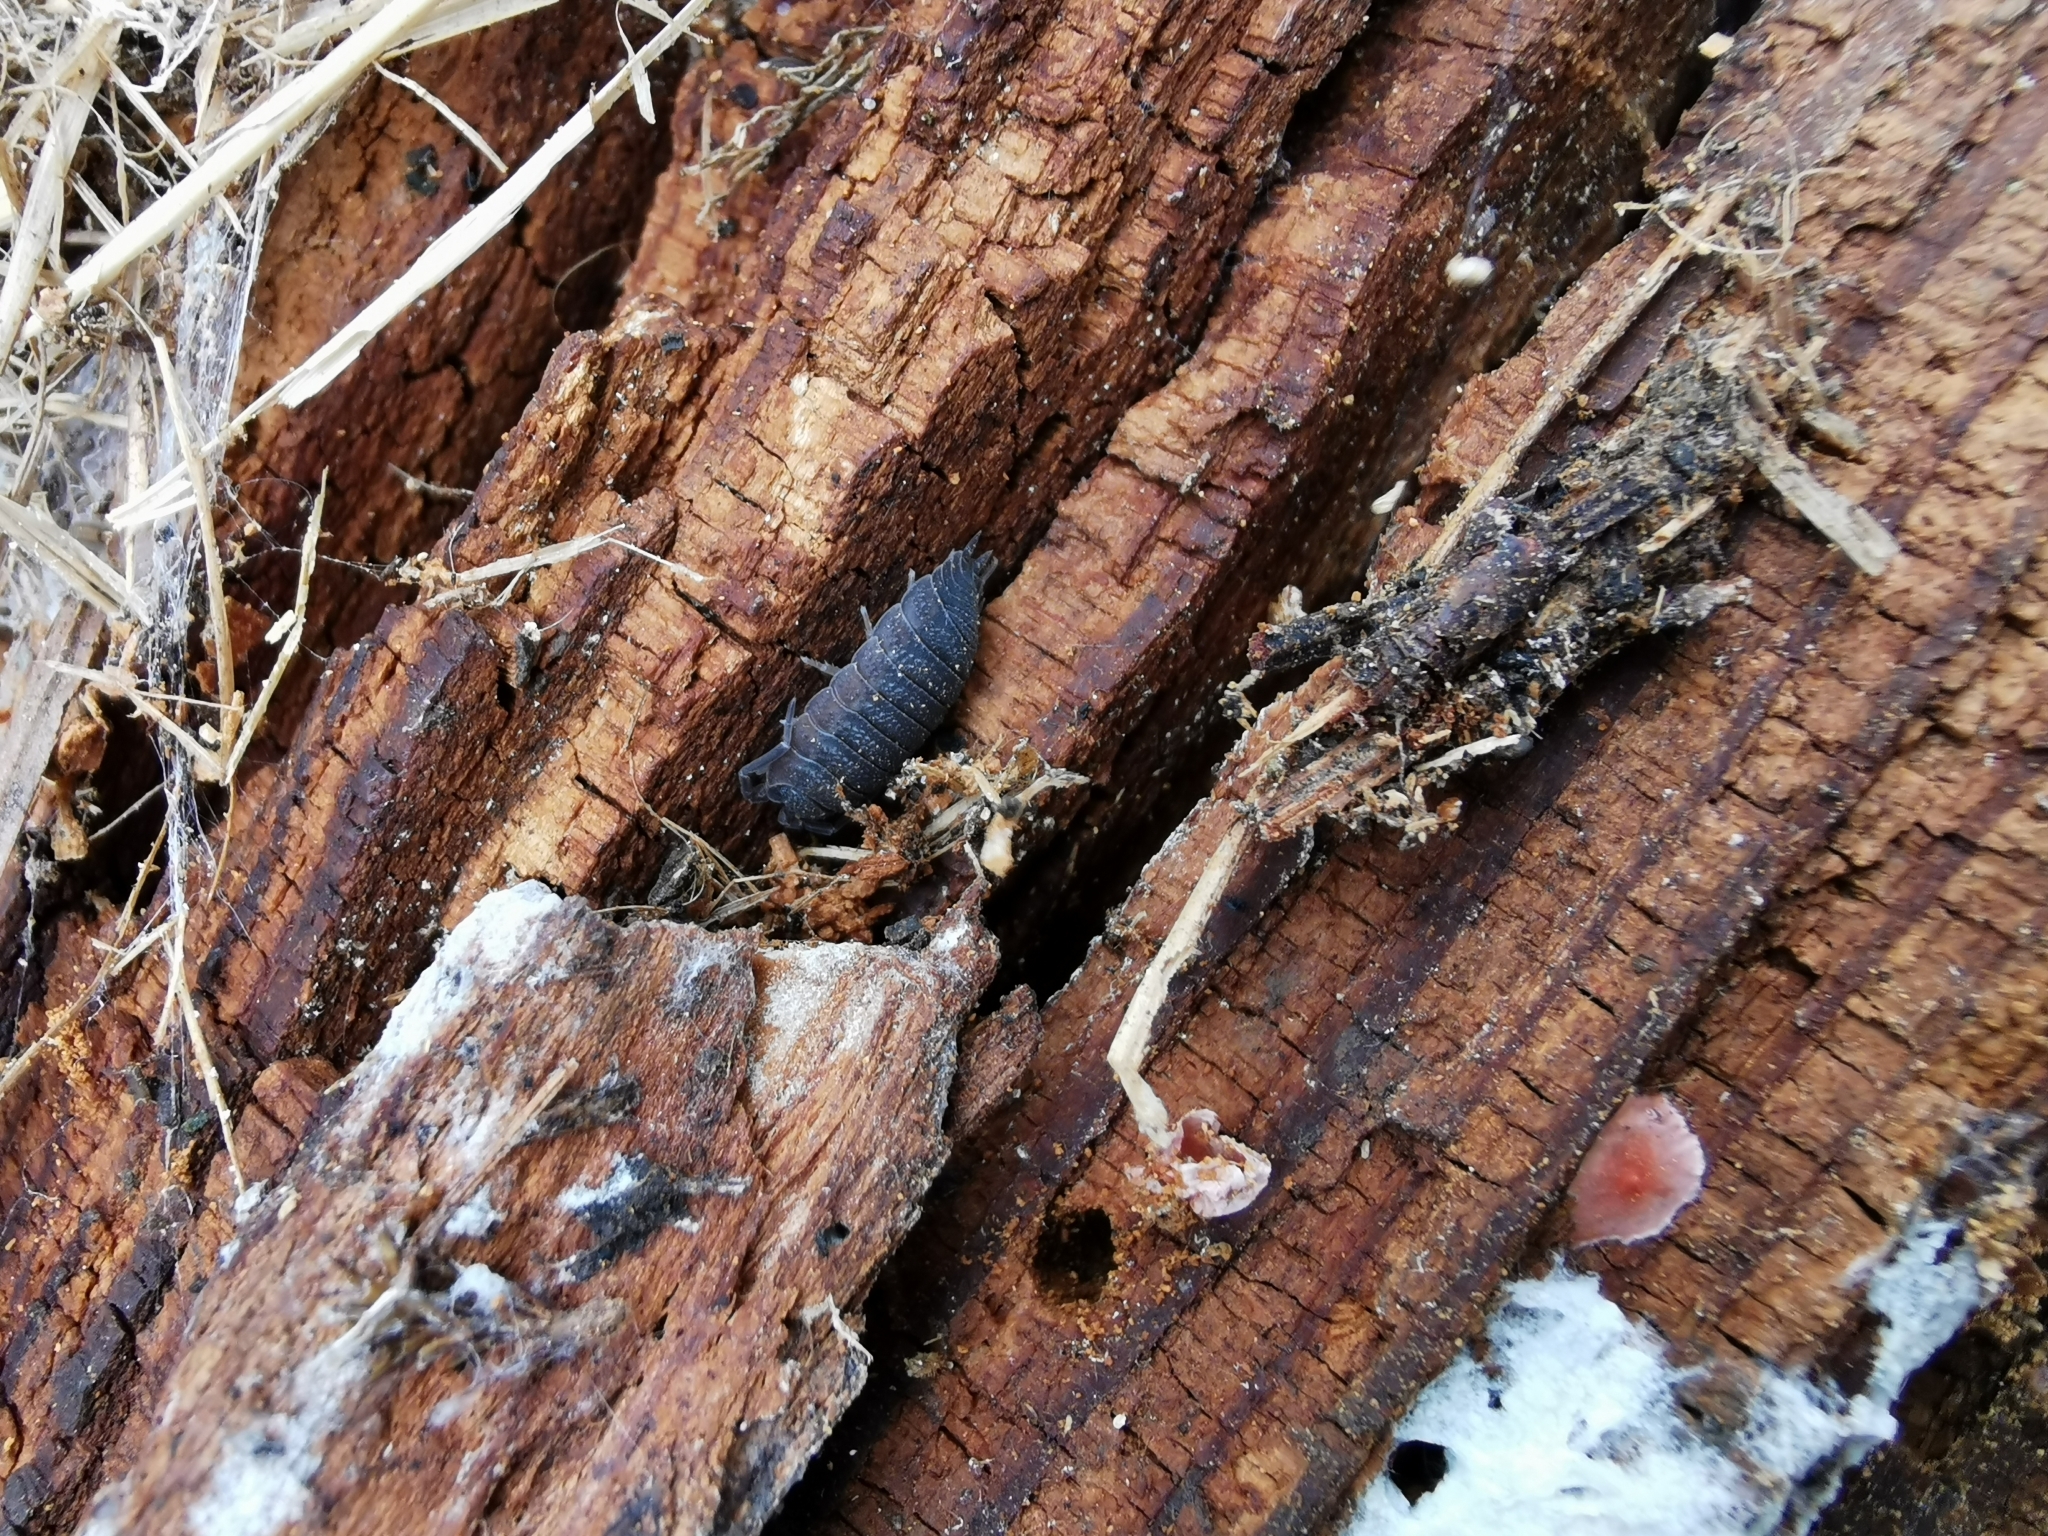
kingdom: Animalia
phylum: Arthropoda
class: Malacostraca
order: Isopoda
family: Porcellionidae
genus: Porcellio
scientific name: Porcellio scaber
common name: Common rough woodlouse
